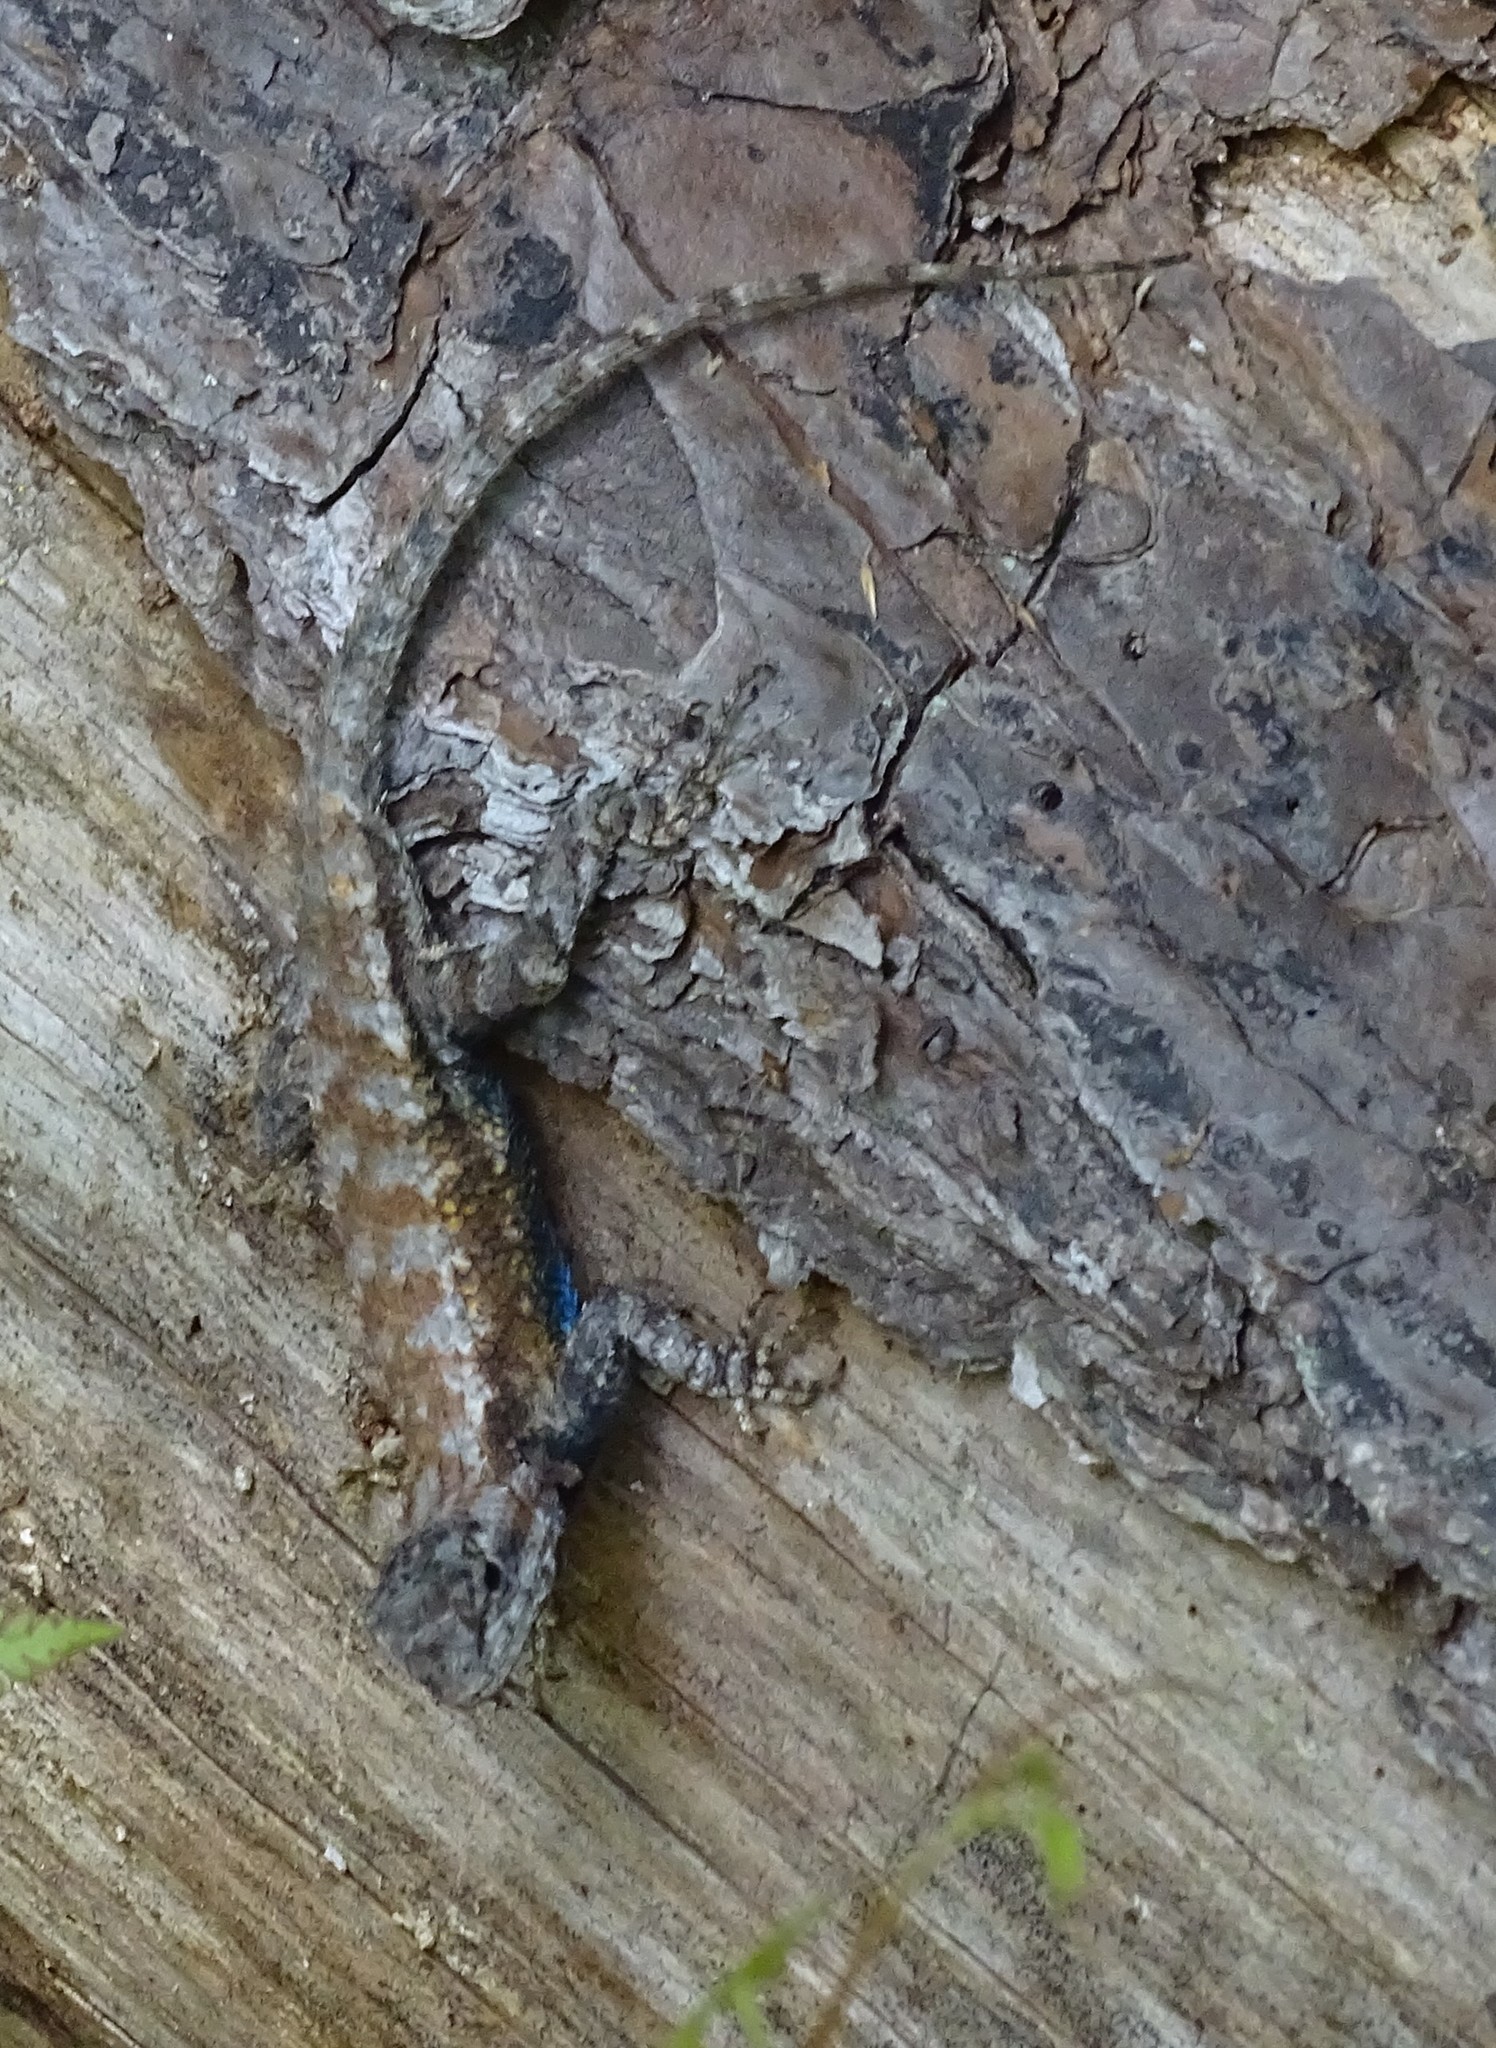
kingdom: Animalia
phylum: Chordata
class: Squamata
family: Phrynosomatidae
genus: Sceloporus
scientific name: Sceloporus undulatus
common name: Eastern fence lizard
